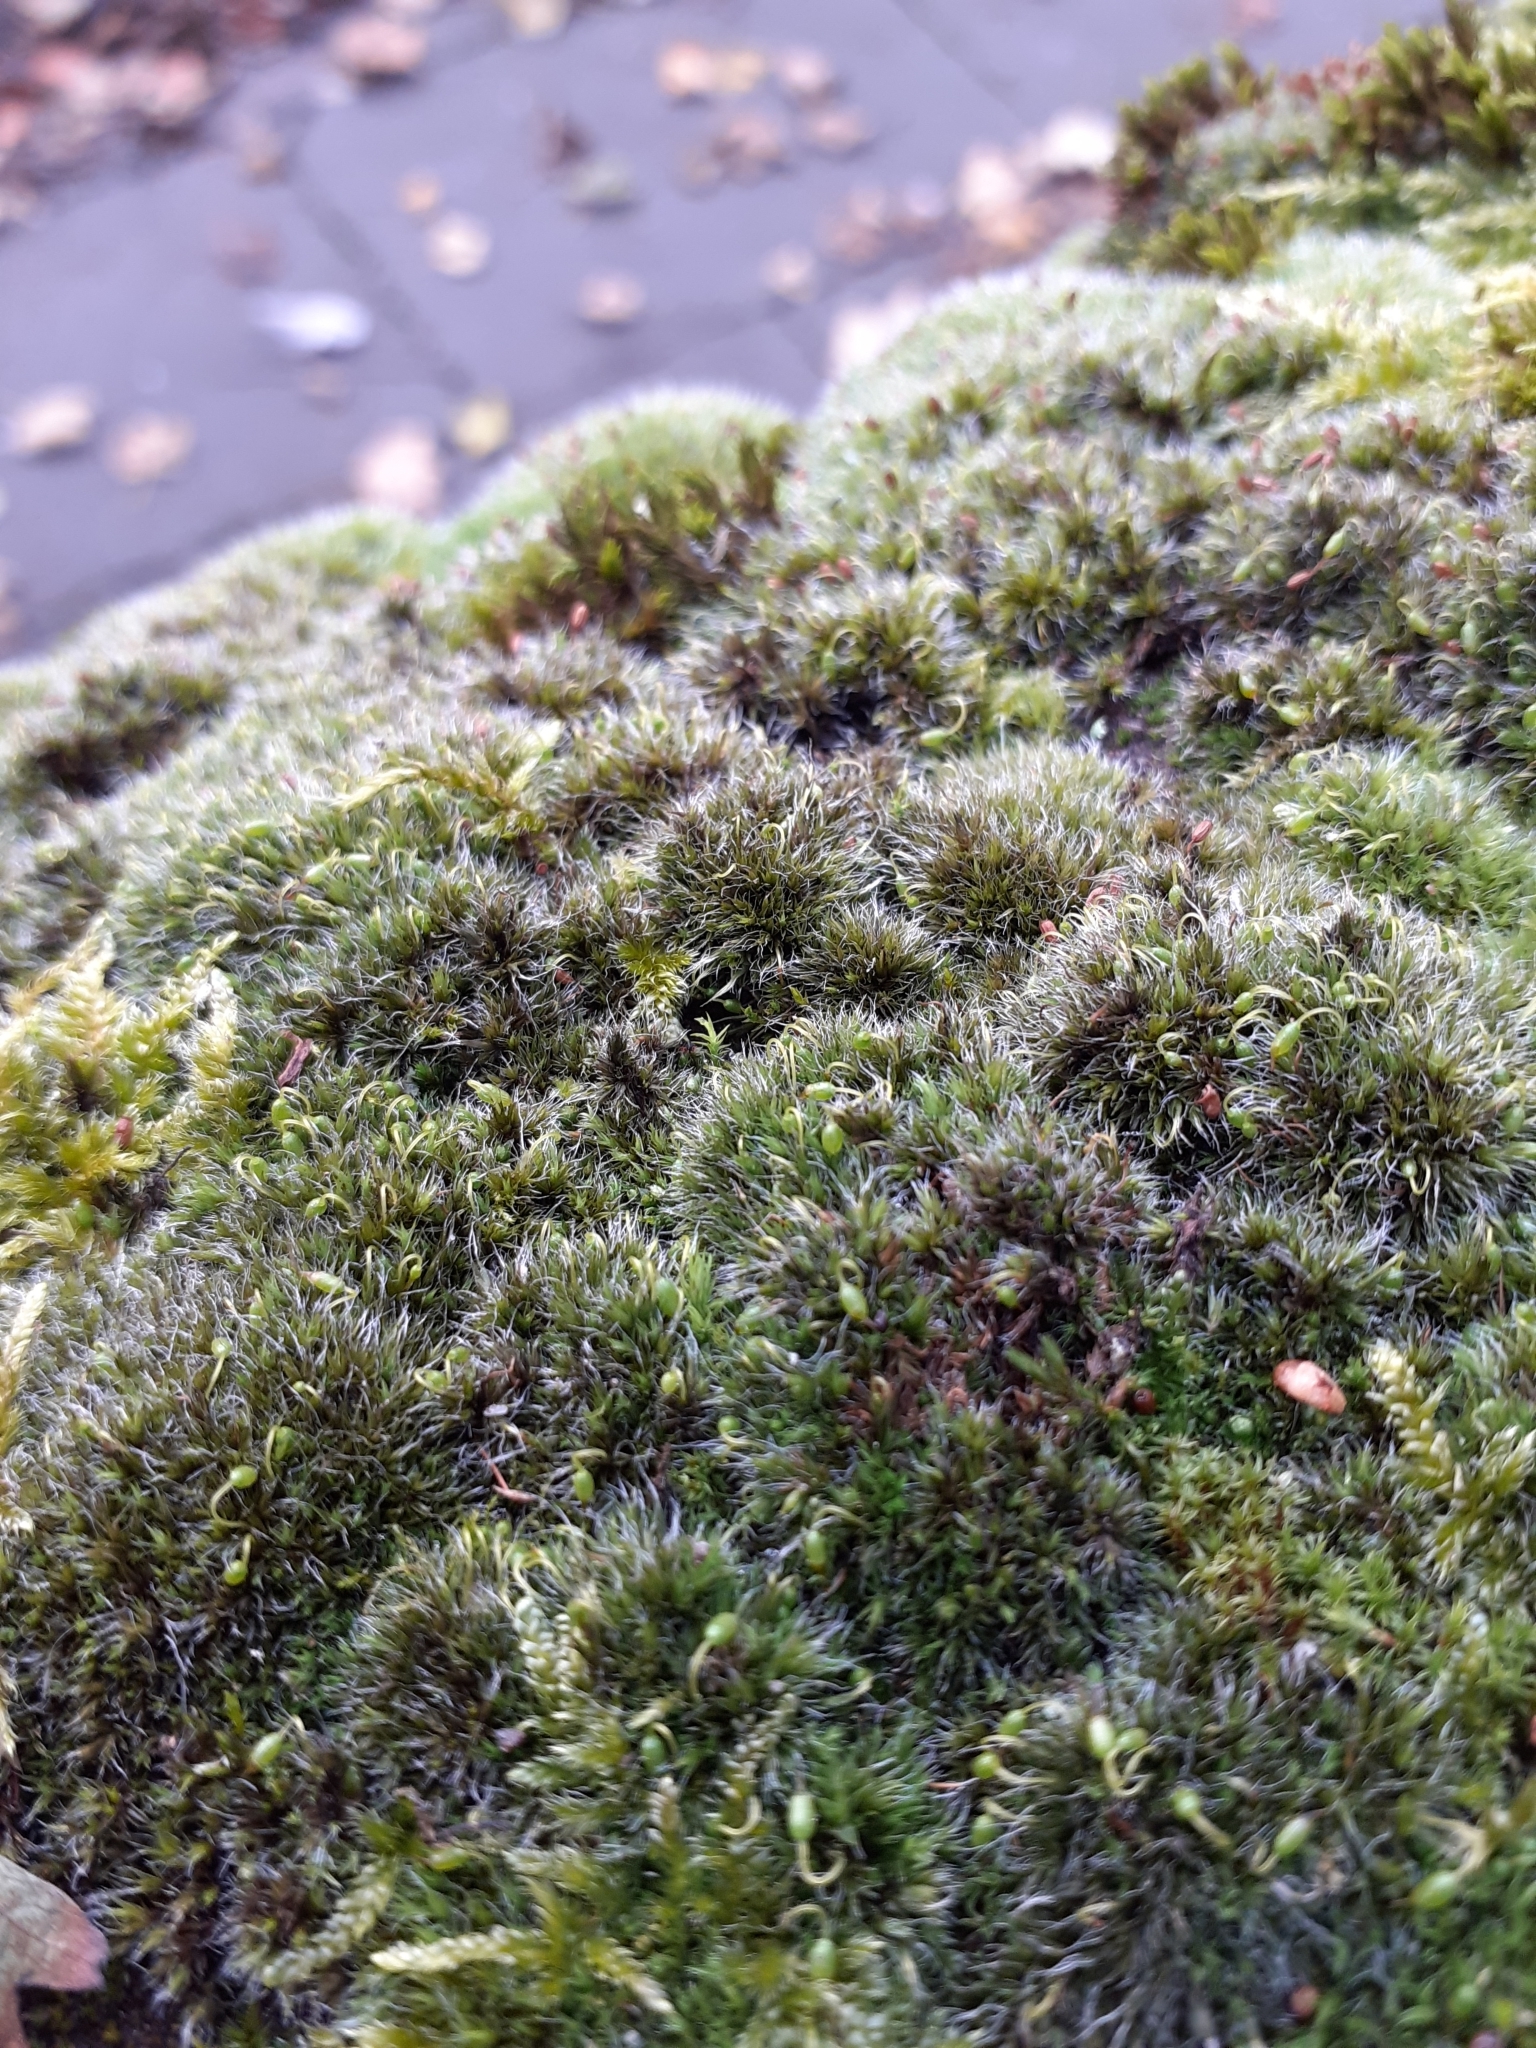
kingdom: Plantae
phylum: Bryophyta
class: Bryopsida
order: Grimmiales
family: Grimmiaceae
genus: Grimmia
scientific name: Grimmia pulvinata
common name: Grey-cushioned grimmia
